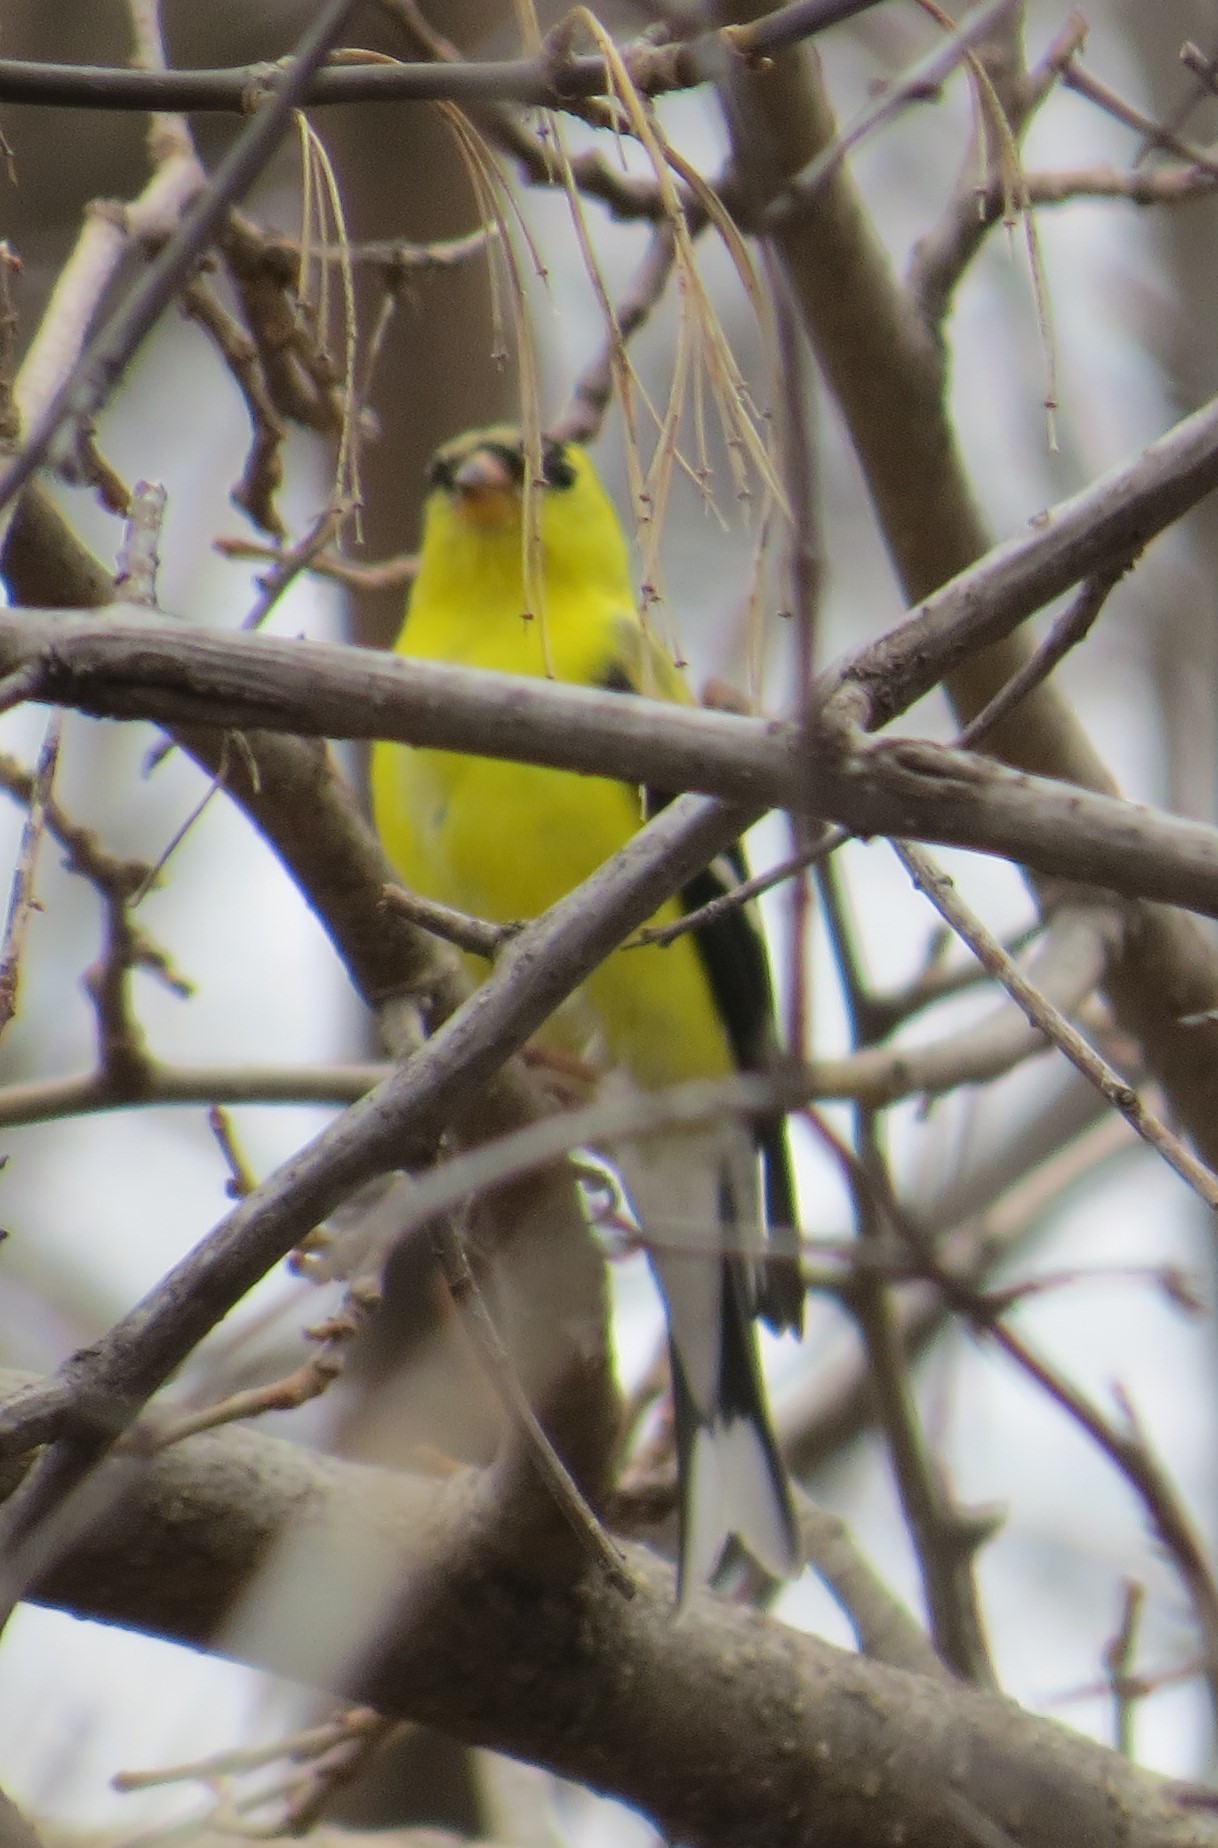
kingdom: Animalia
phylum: Chordata
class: Aves
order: Passeriformes
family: Fringillidae
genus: Spinus
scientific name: Spinus tristis
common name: American goldfinch
